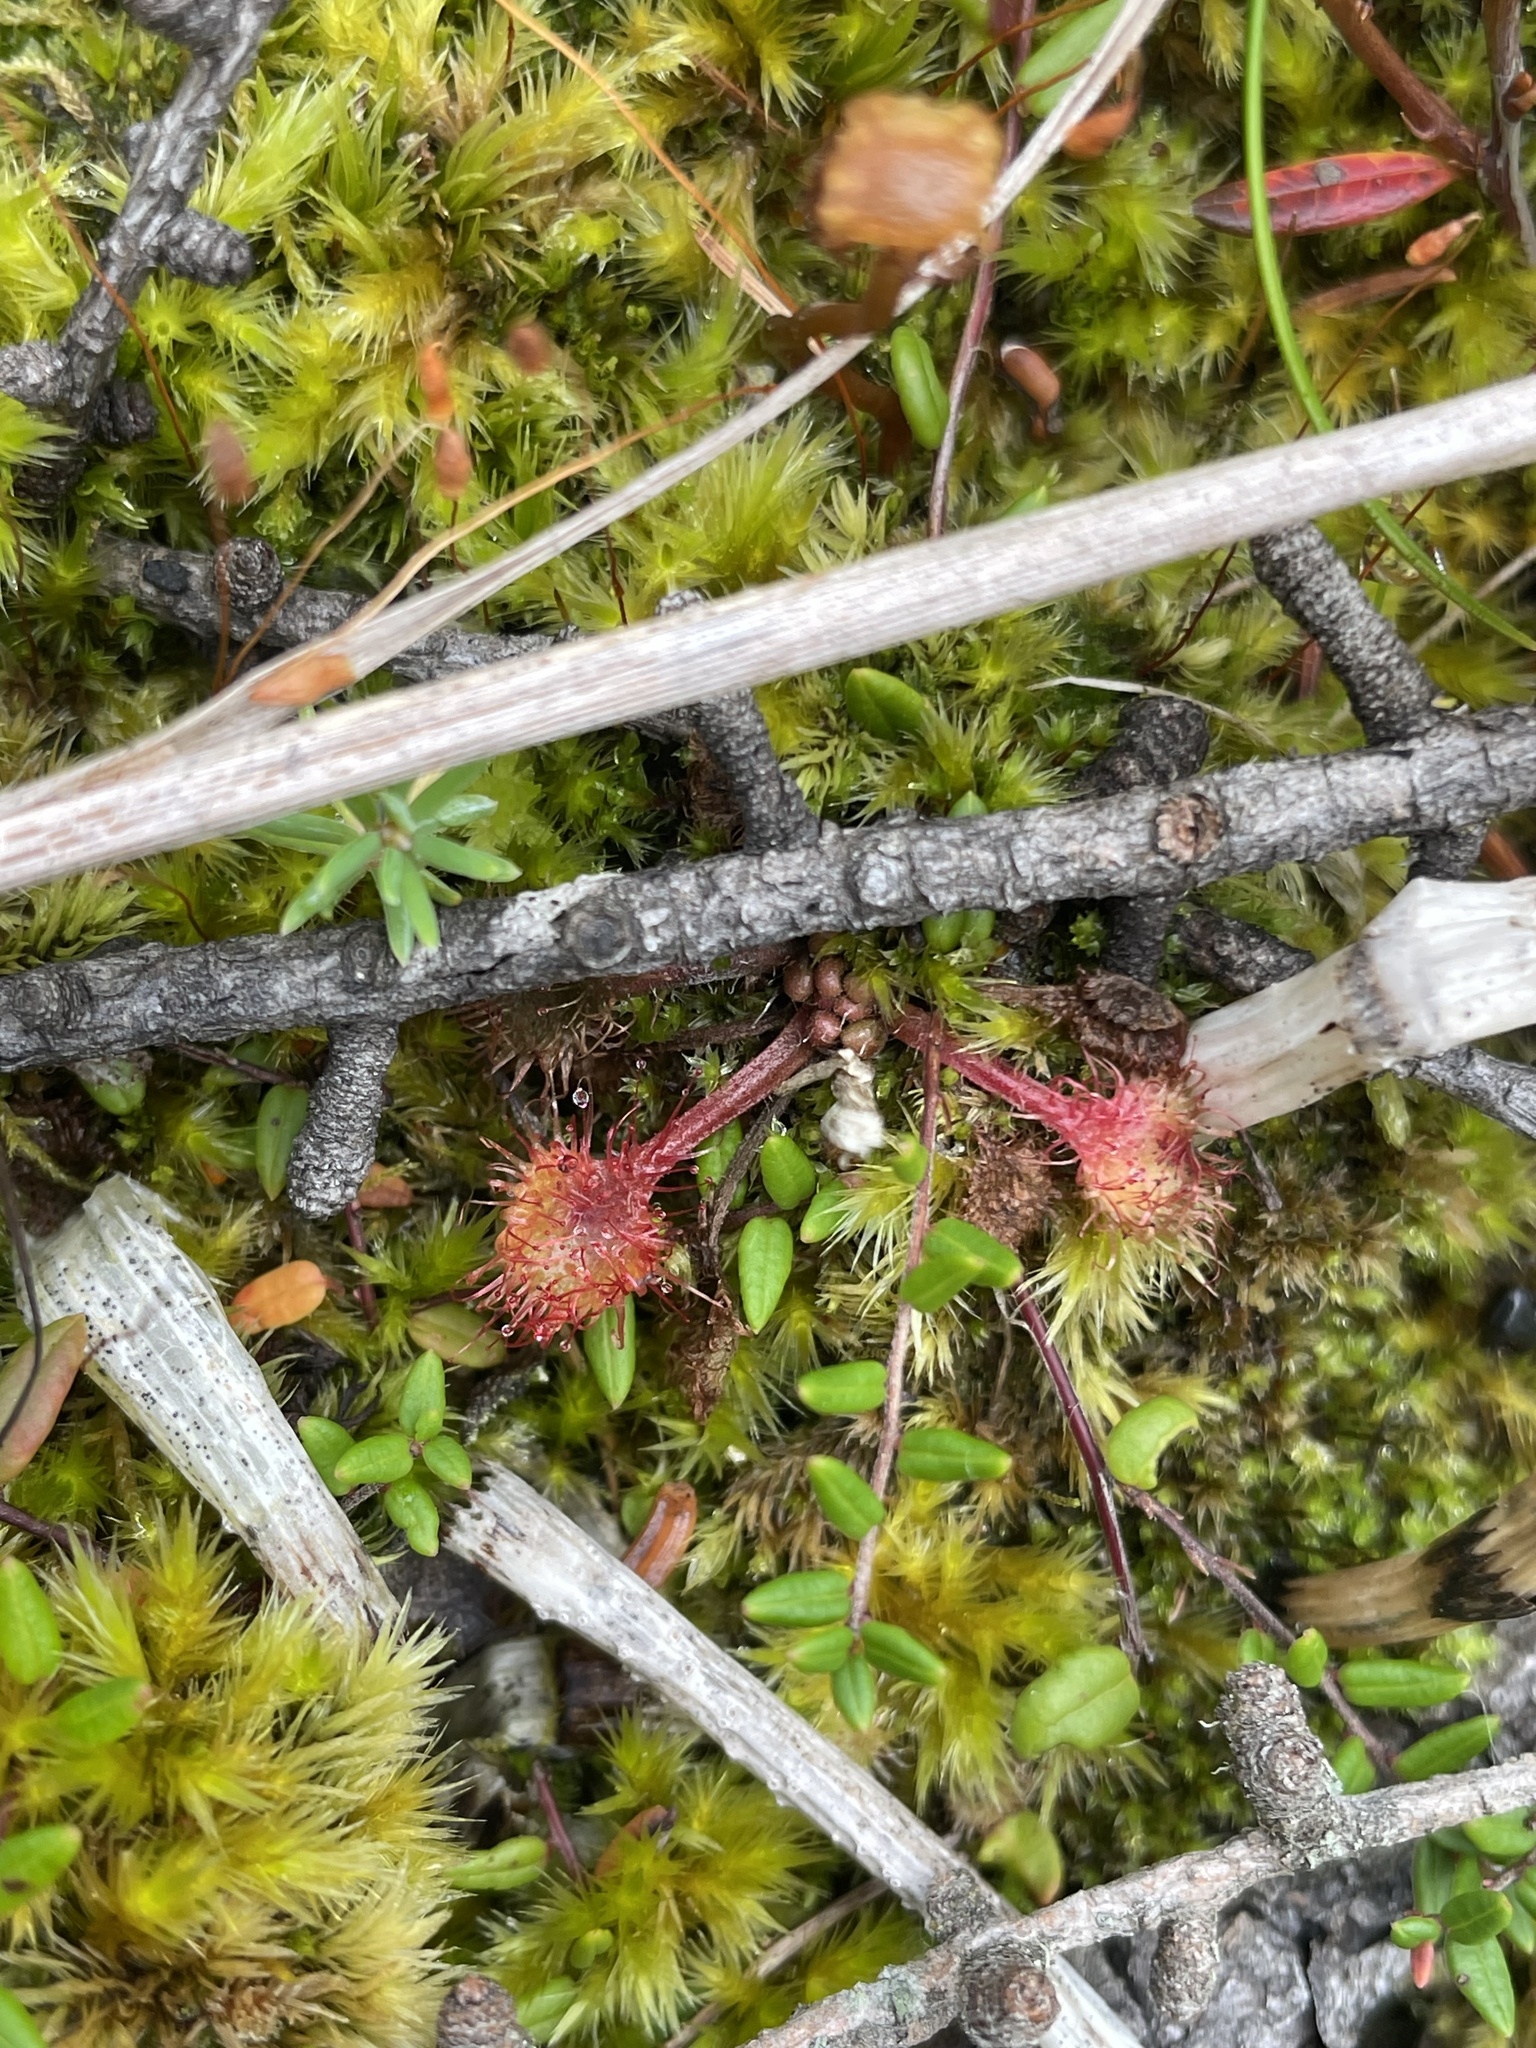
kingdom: Plantae
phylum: Tracheophyta
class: Magnoliopsida
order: Caryophyllales
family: Droseraceae
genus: Drosera
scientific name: Drosera rotundifolia
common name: Round-leaved sundew
